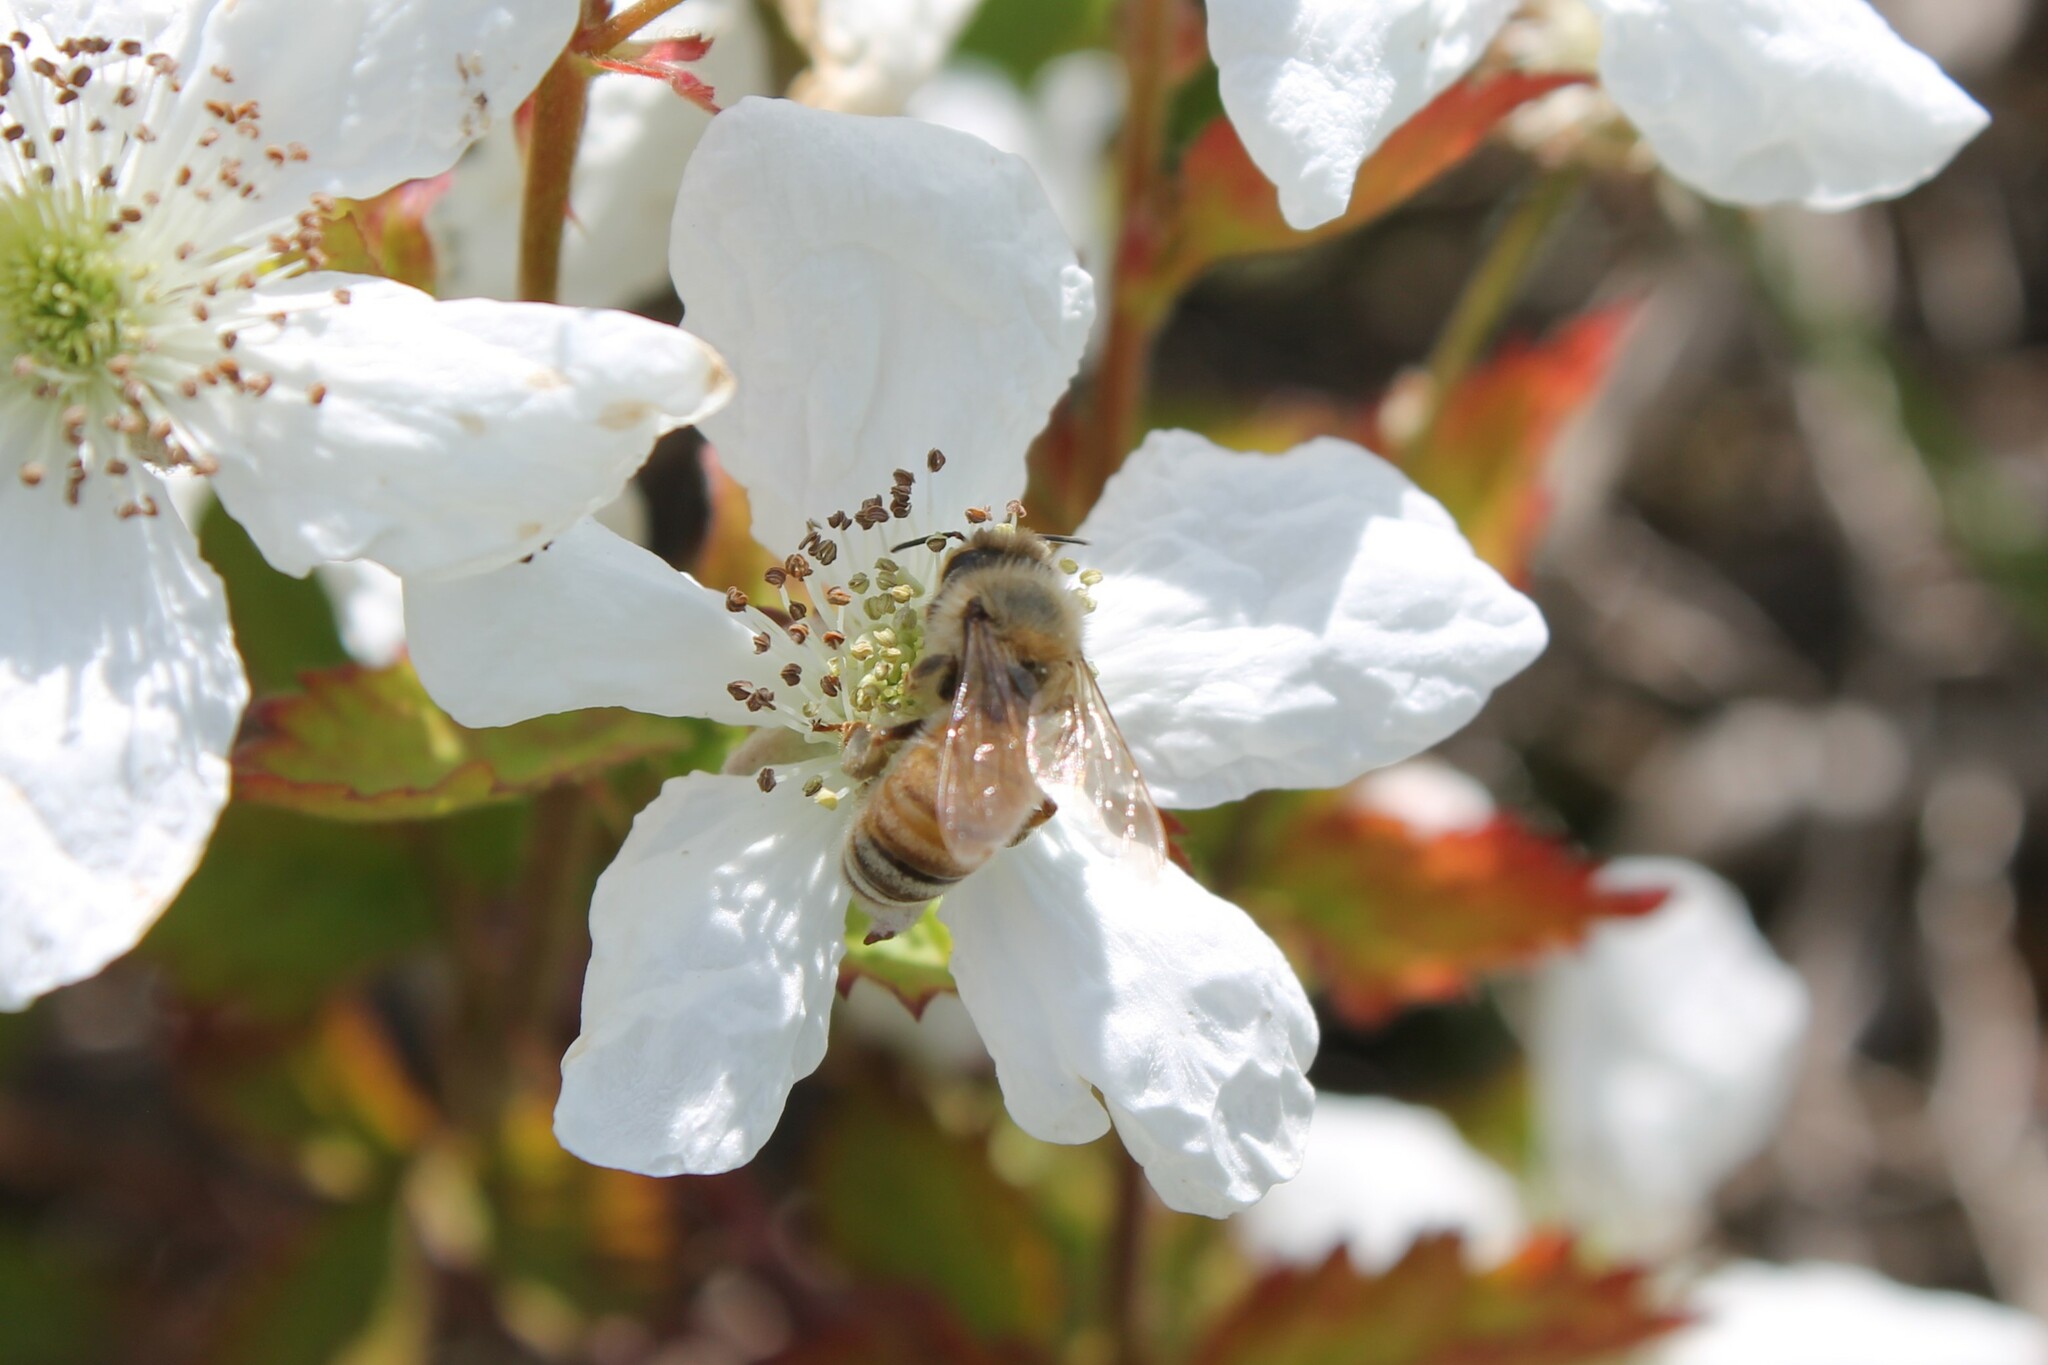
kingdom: Animalia
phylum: Arthropoda
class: Insecta
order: Hymenoptera
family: Apidae
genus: Apis
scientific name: Apis mellifera
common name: Honey bee
